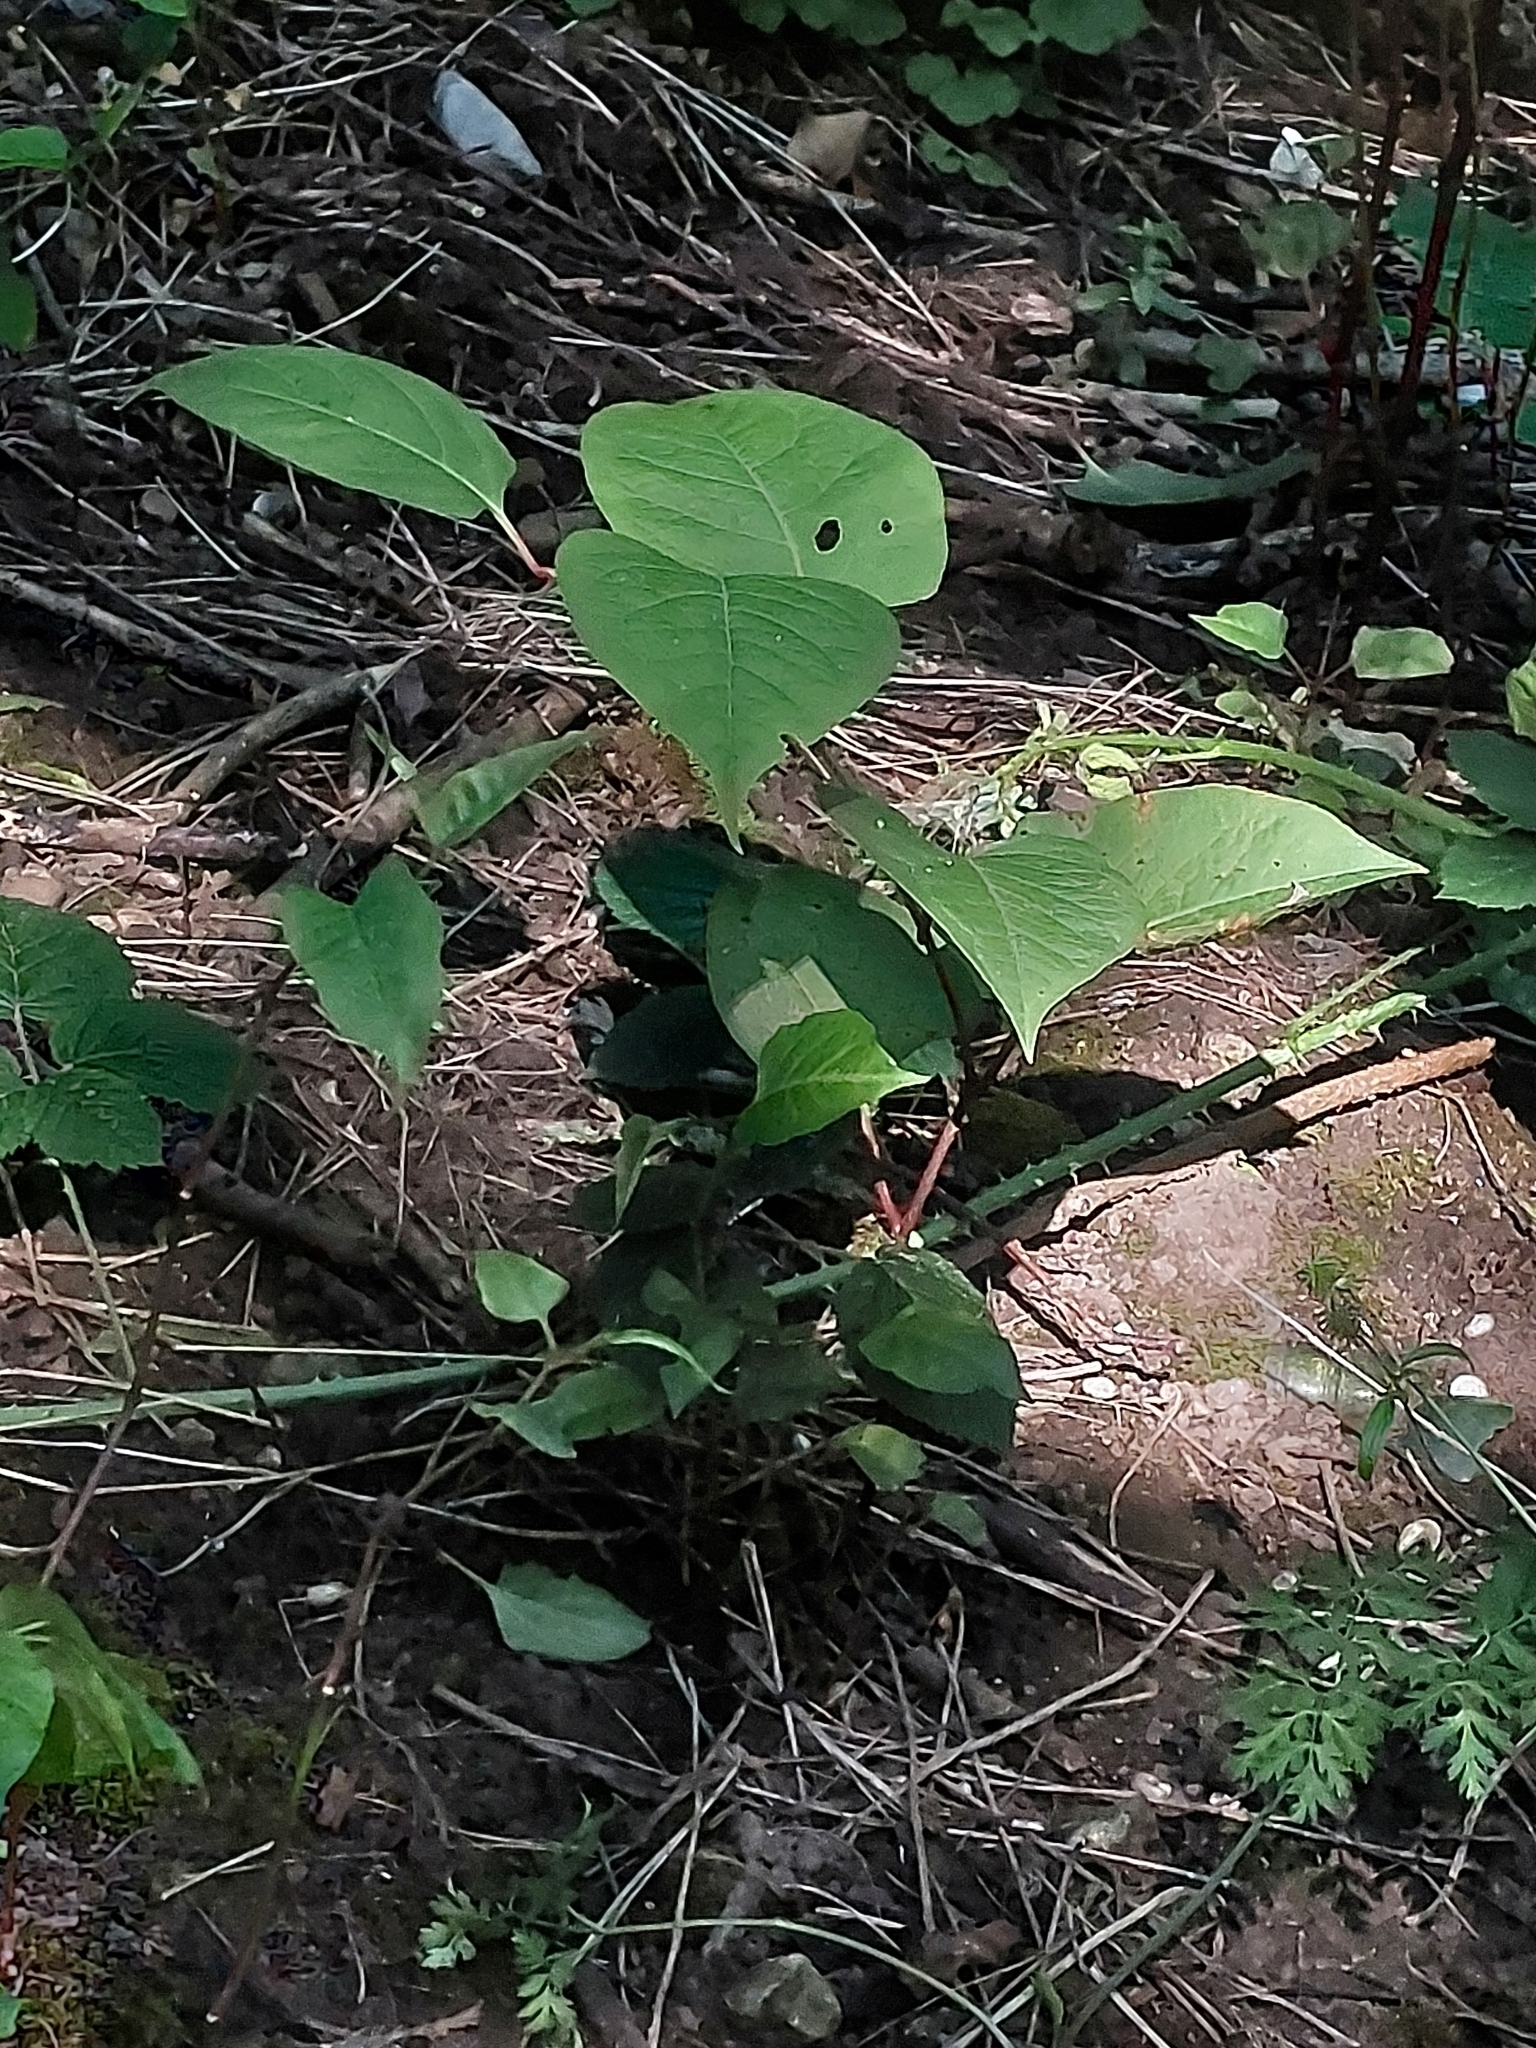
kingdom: Plantae
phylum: Tracheophyta
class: Magnoliopsida
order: Caryophyllales
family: Polygonaceae
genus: Reynoutria
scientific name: Reynoutria japonica
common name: Japanese knotweed
